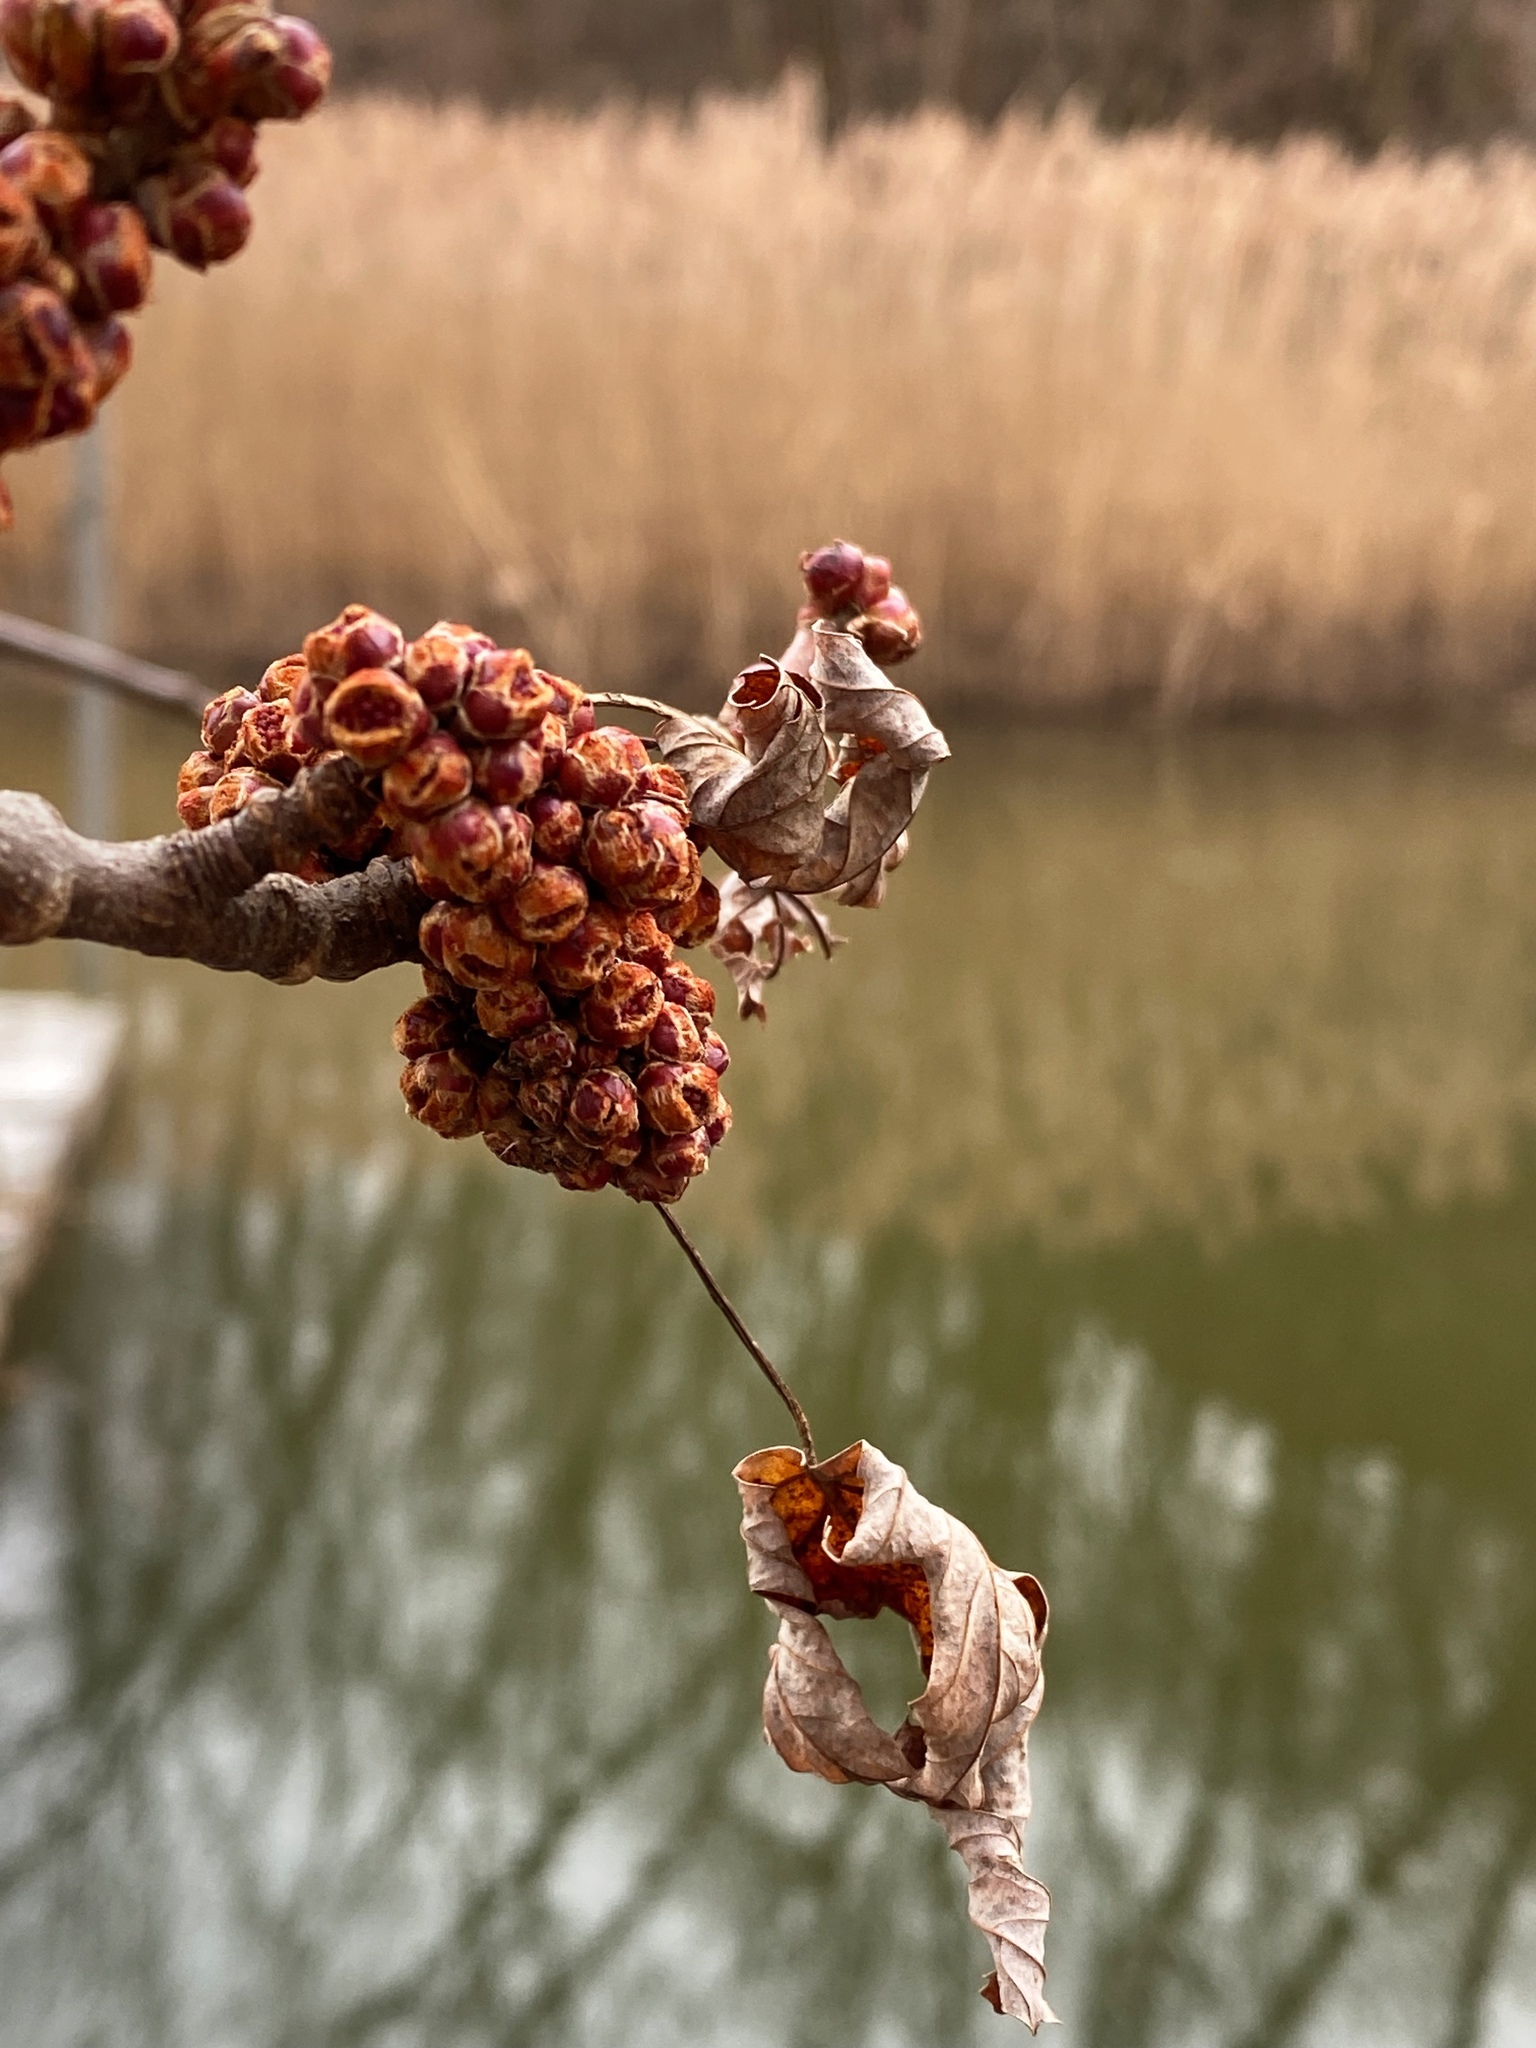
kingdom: Plantae
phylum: Tracheophyta
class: Magnoliopsida
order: Sapindales
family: Sapindaceae
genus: Acer
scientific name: Acer saccharinum
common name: Silver maple
